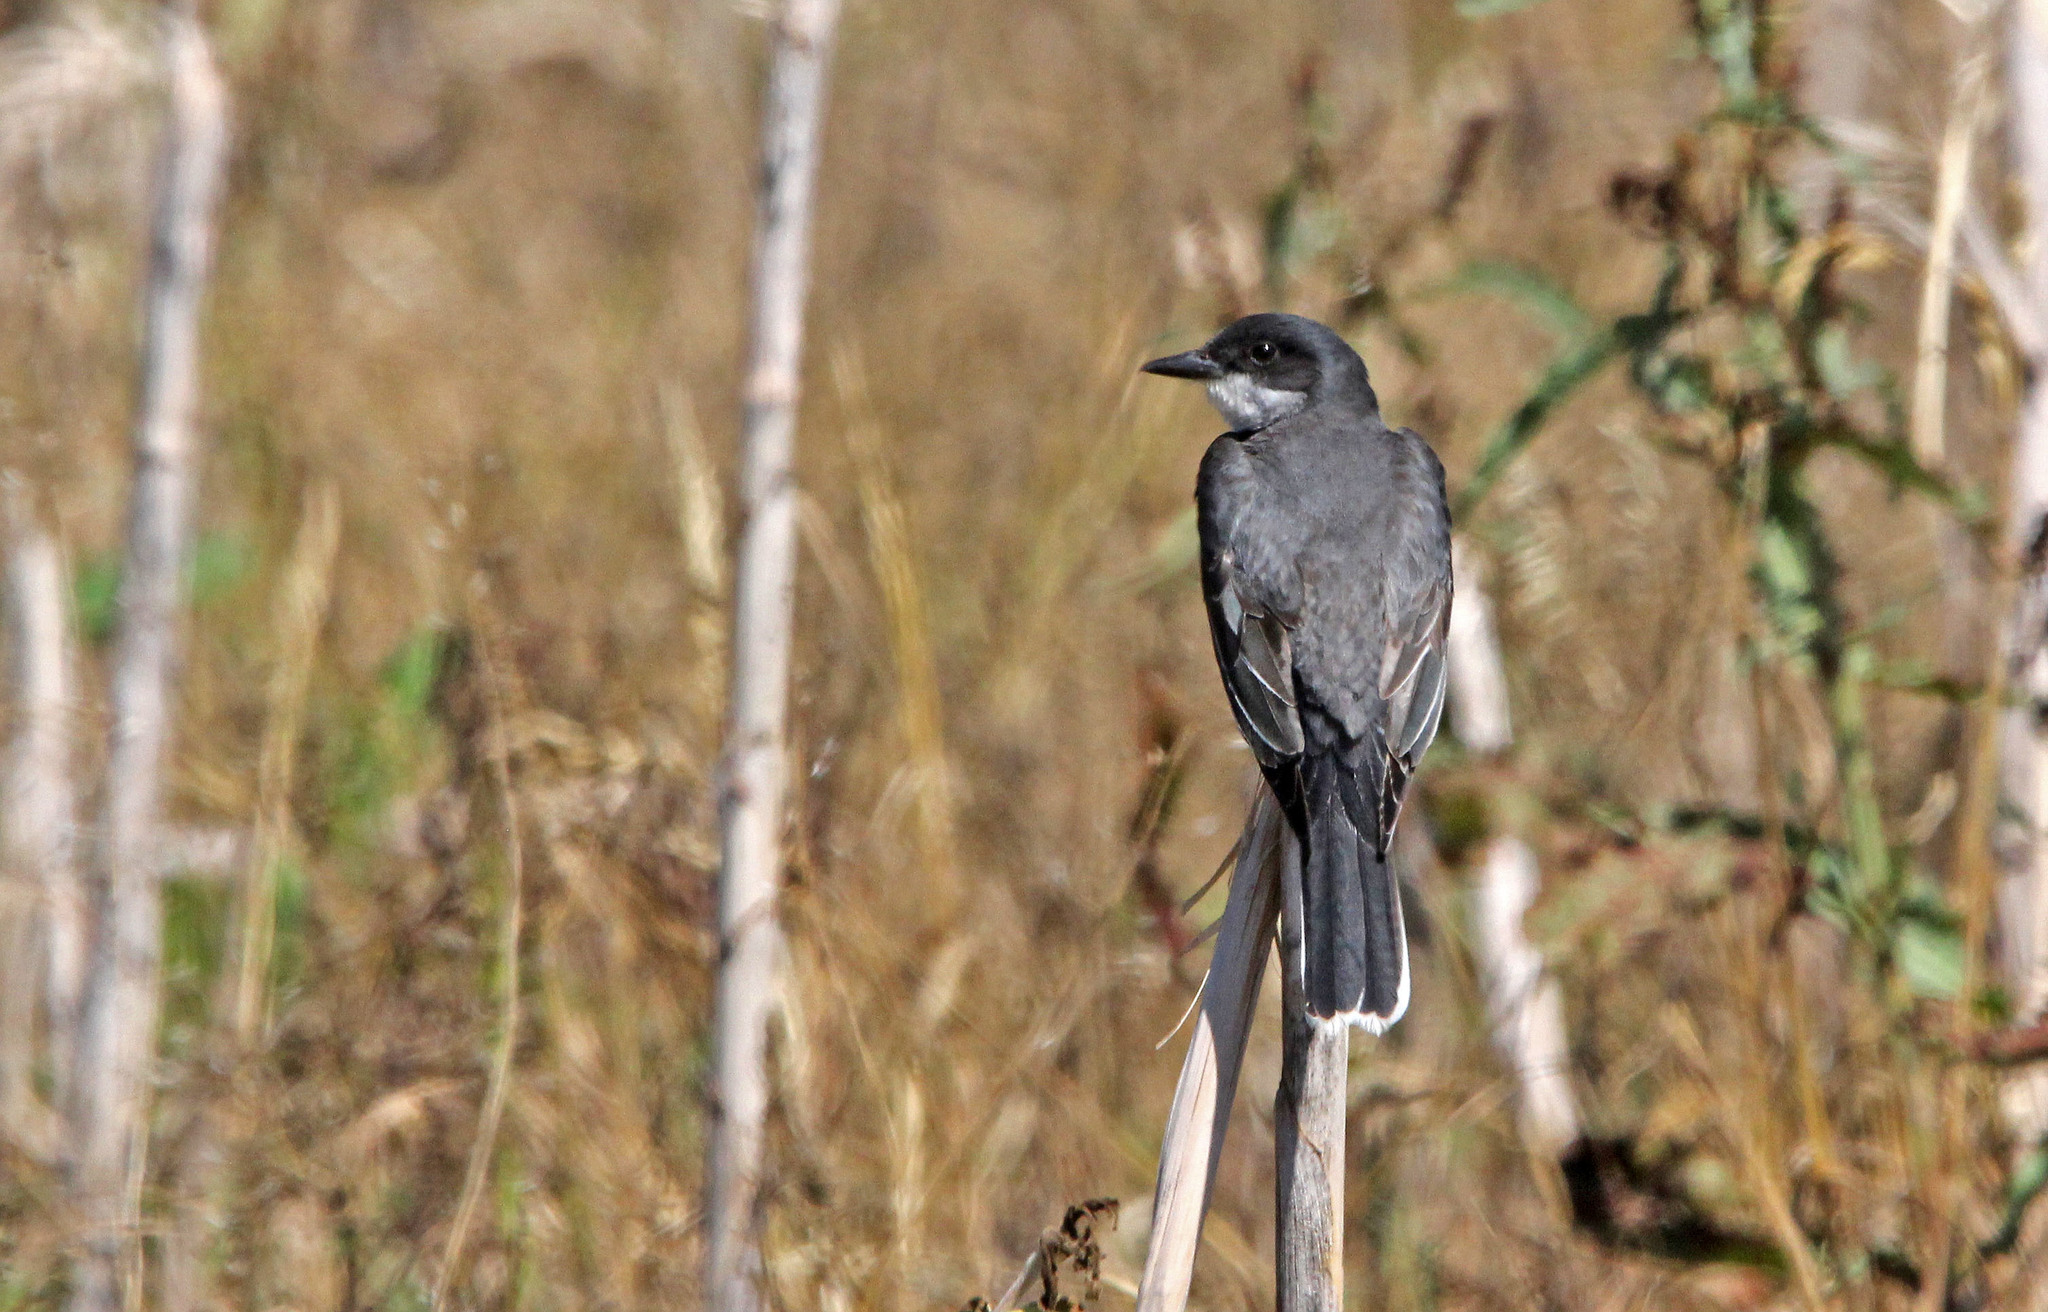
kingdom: Animalia
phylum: Chordata
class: Aves
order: Passeriformes
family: Tyrannidae
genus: Tyrannus
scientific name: Tyrannus tyrannus
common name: Eastern kingbird
